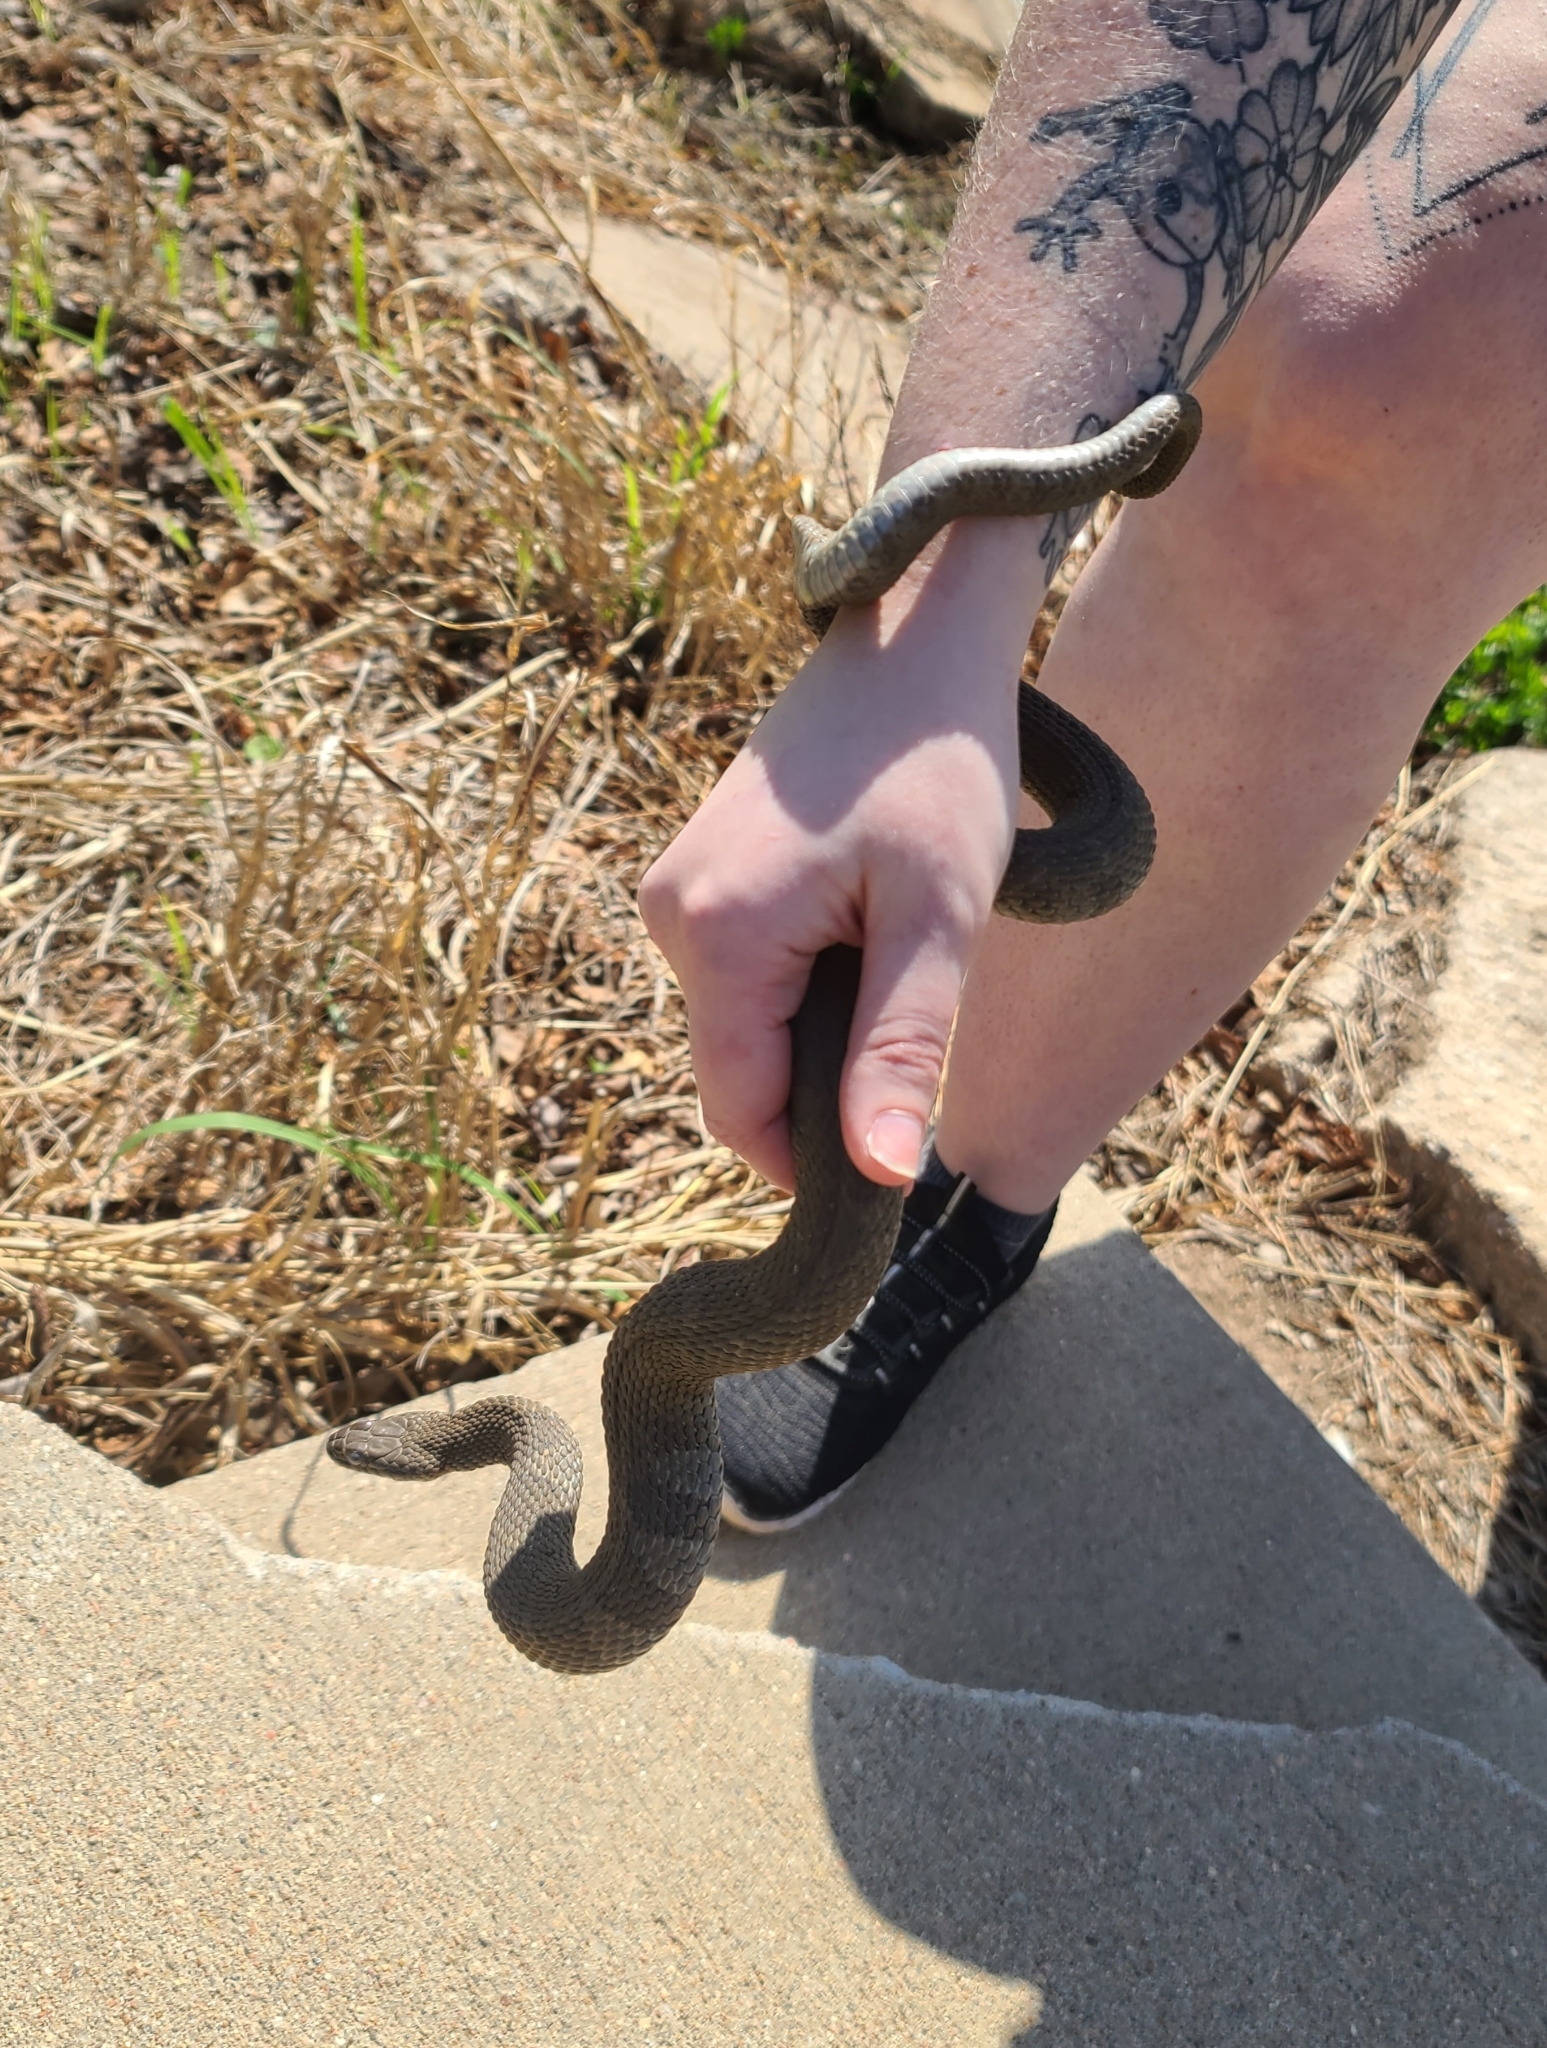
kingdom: Animalia
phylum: Chordata
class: Squamata
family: Colubridae
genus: Nerodia
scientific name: Nerodia sipedon
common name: Northern water snake
